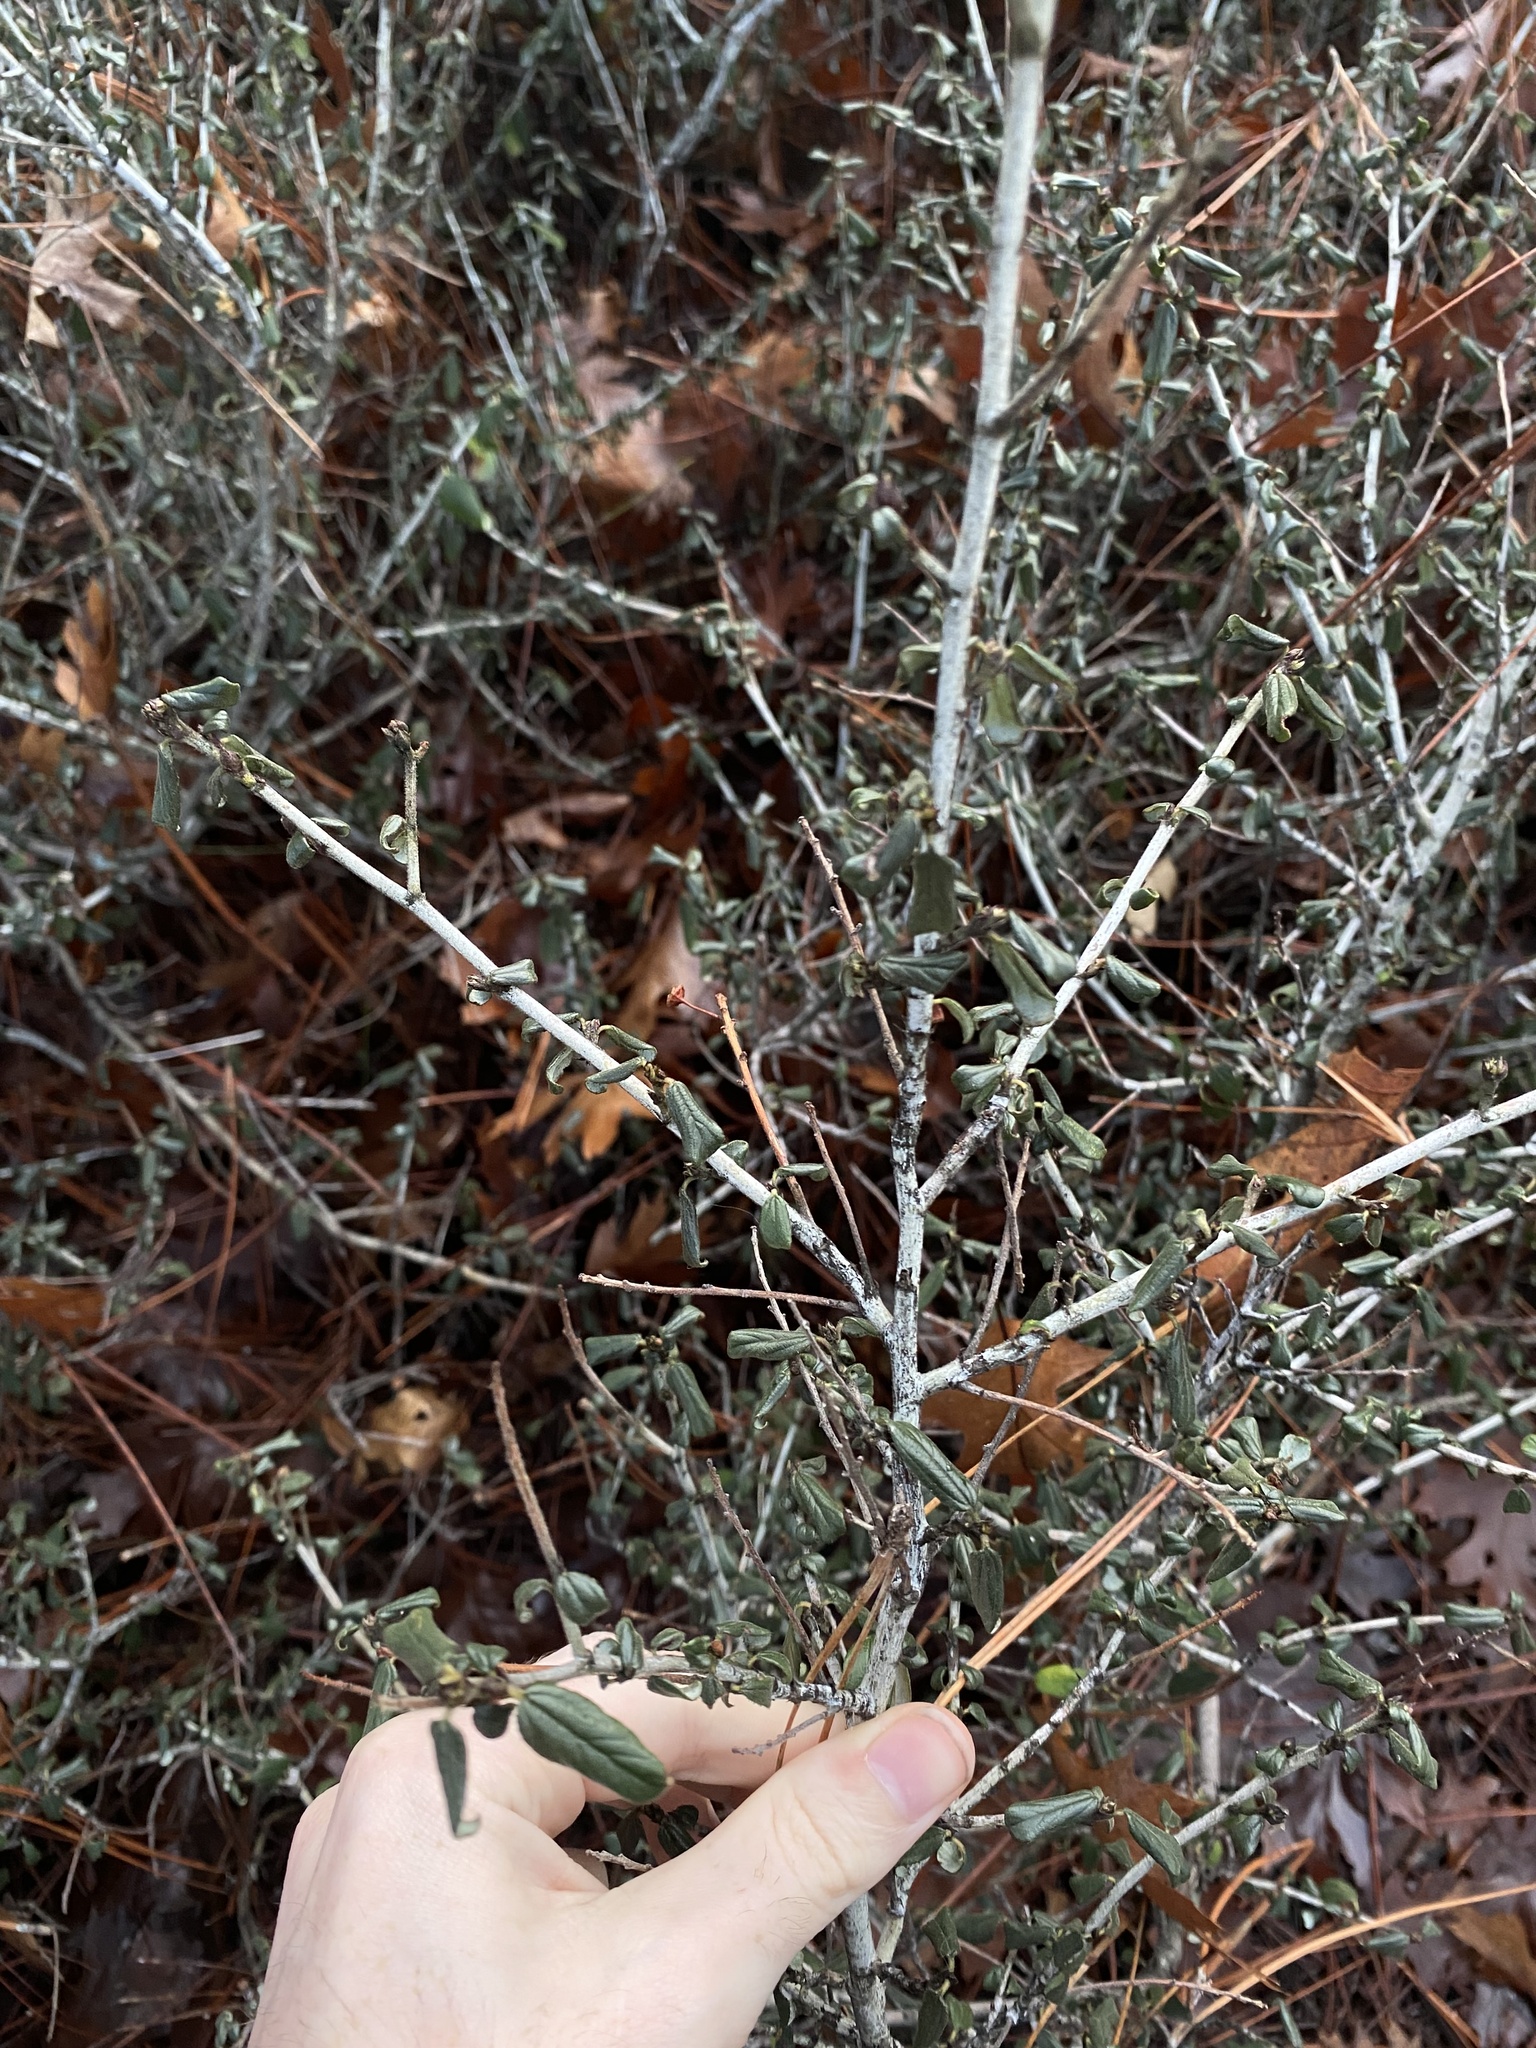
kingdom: Plantae
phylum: Tracheophyta
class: Magnoliopsida
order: Rosales
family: Rhamnaceae
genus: Ceanothus
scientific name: Ceanothus lemmonii
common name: Lemmon's ceanothus
